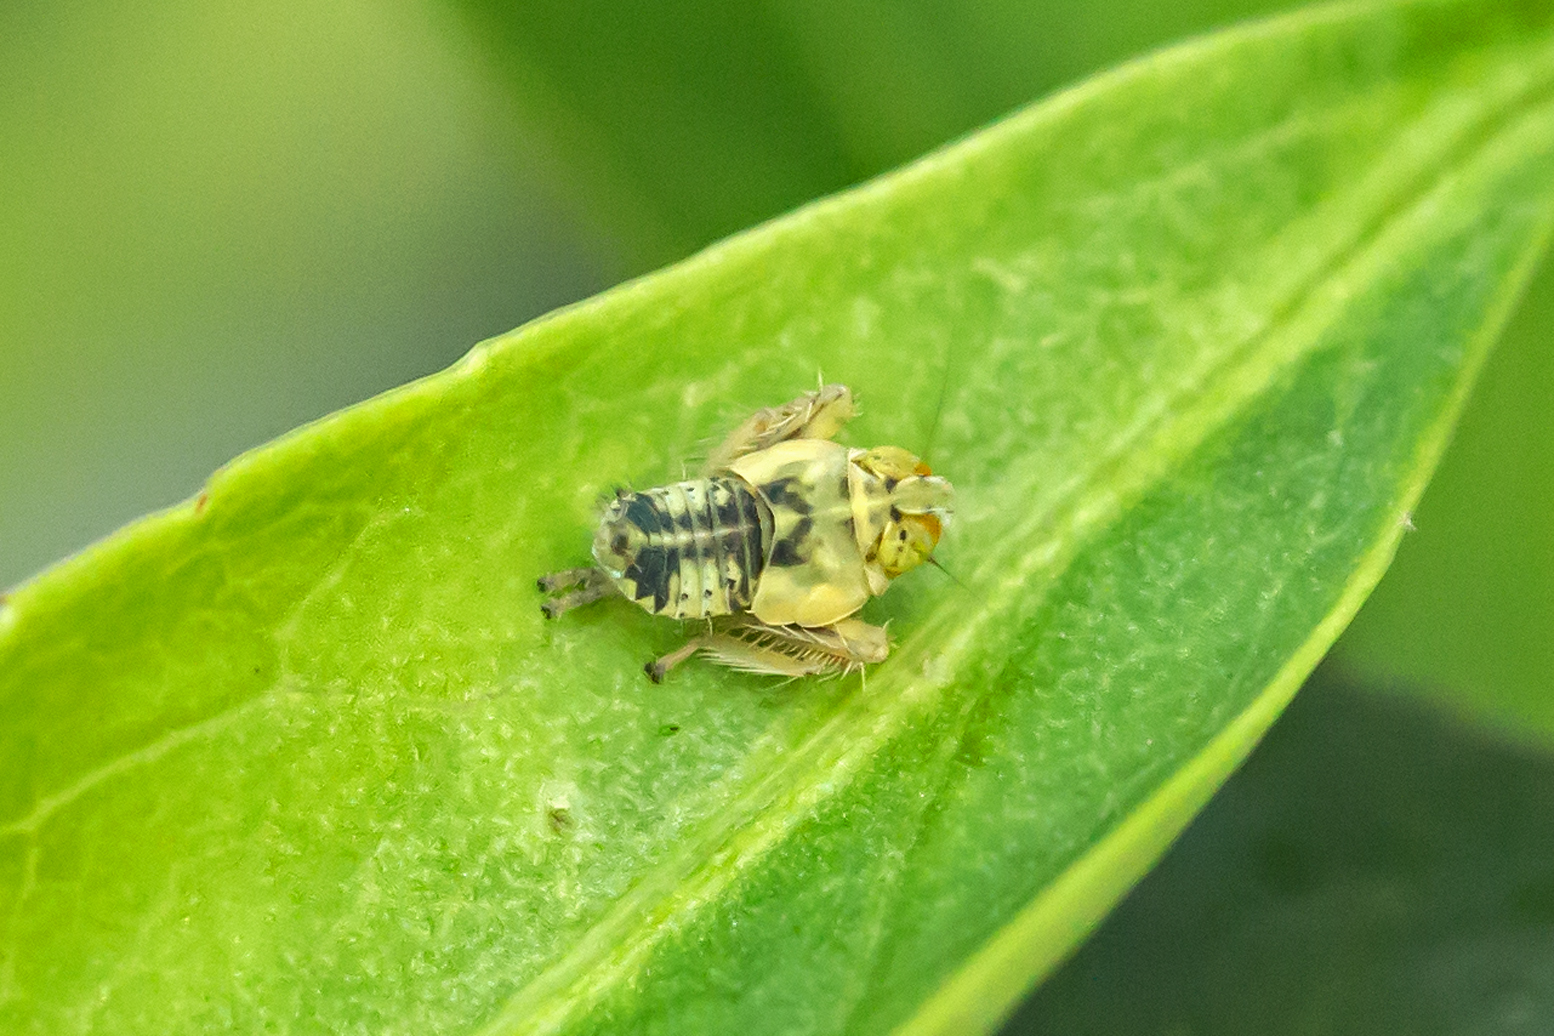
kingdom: Animalia
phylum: Arthropoda
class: Insecta
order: Hemiptera
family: Cicadellidae
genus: Jikradia
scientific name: Jikradia olitoria
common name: Coppery leafhopper
